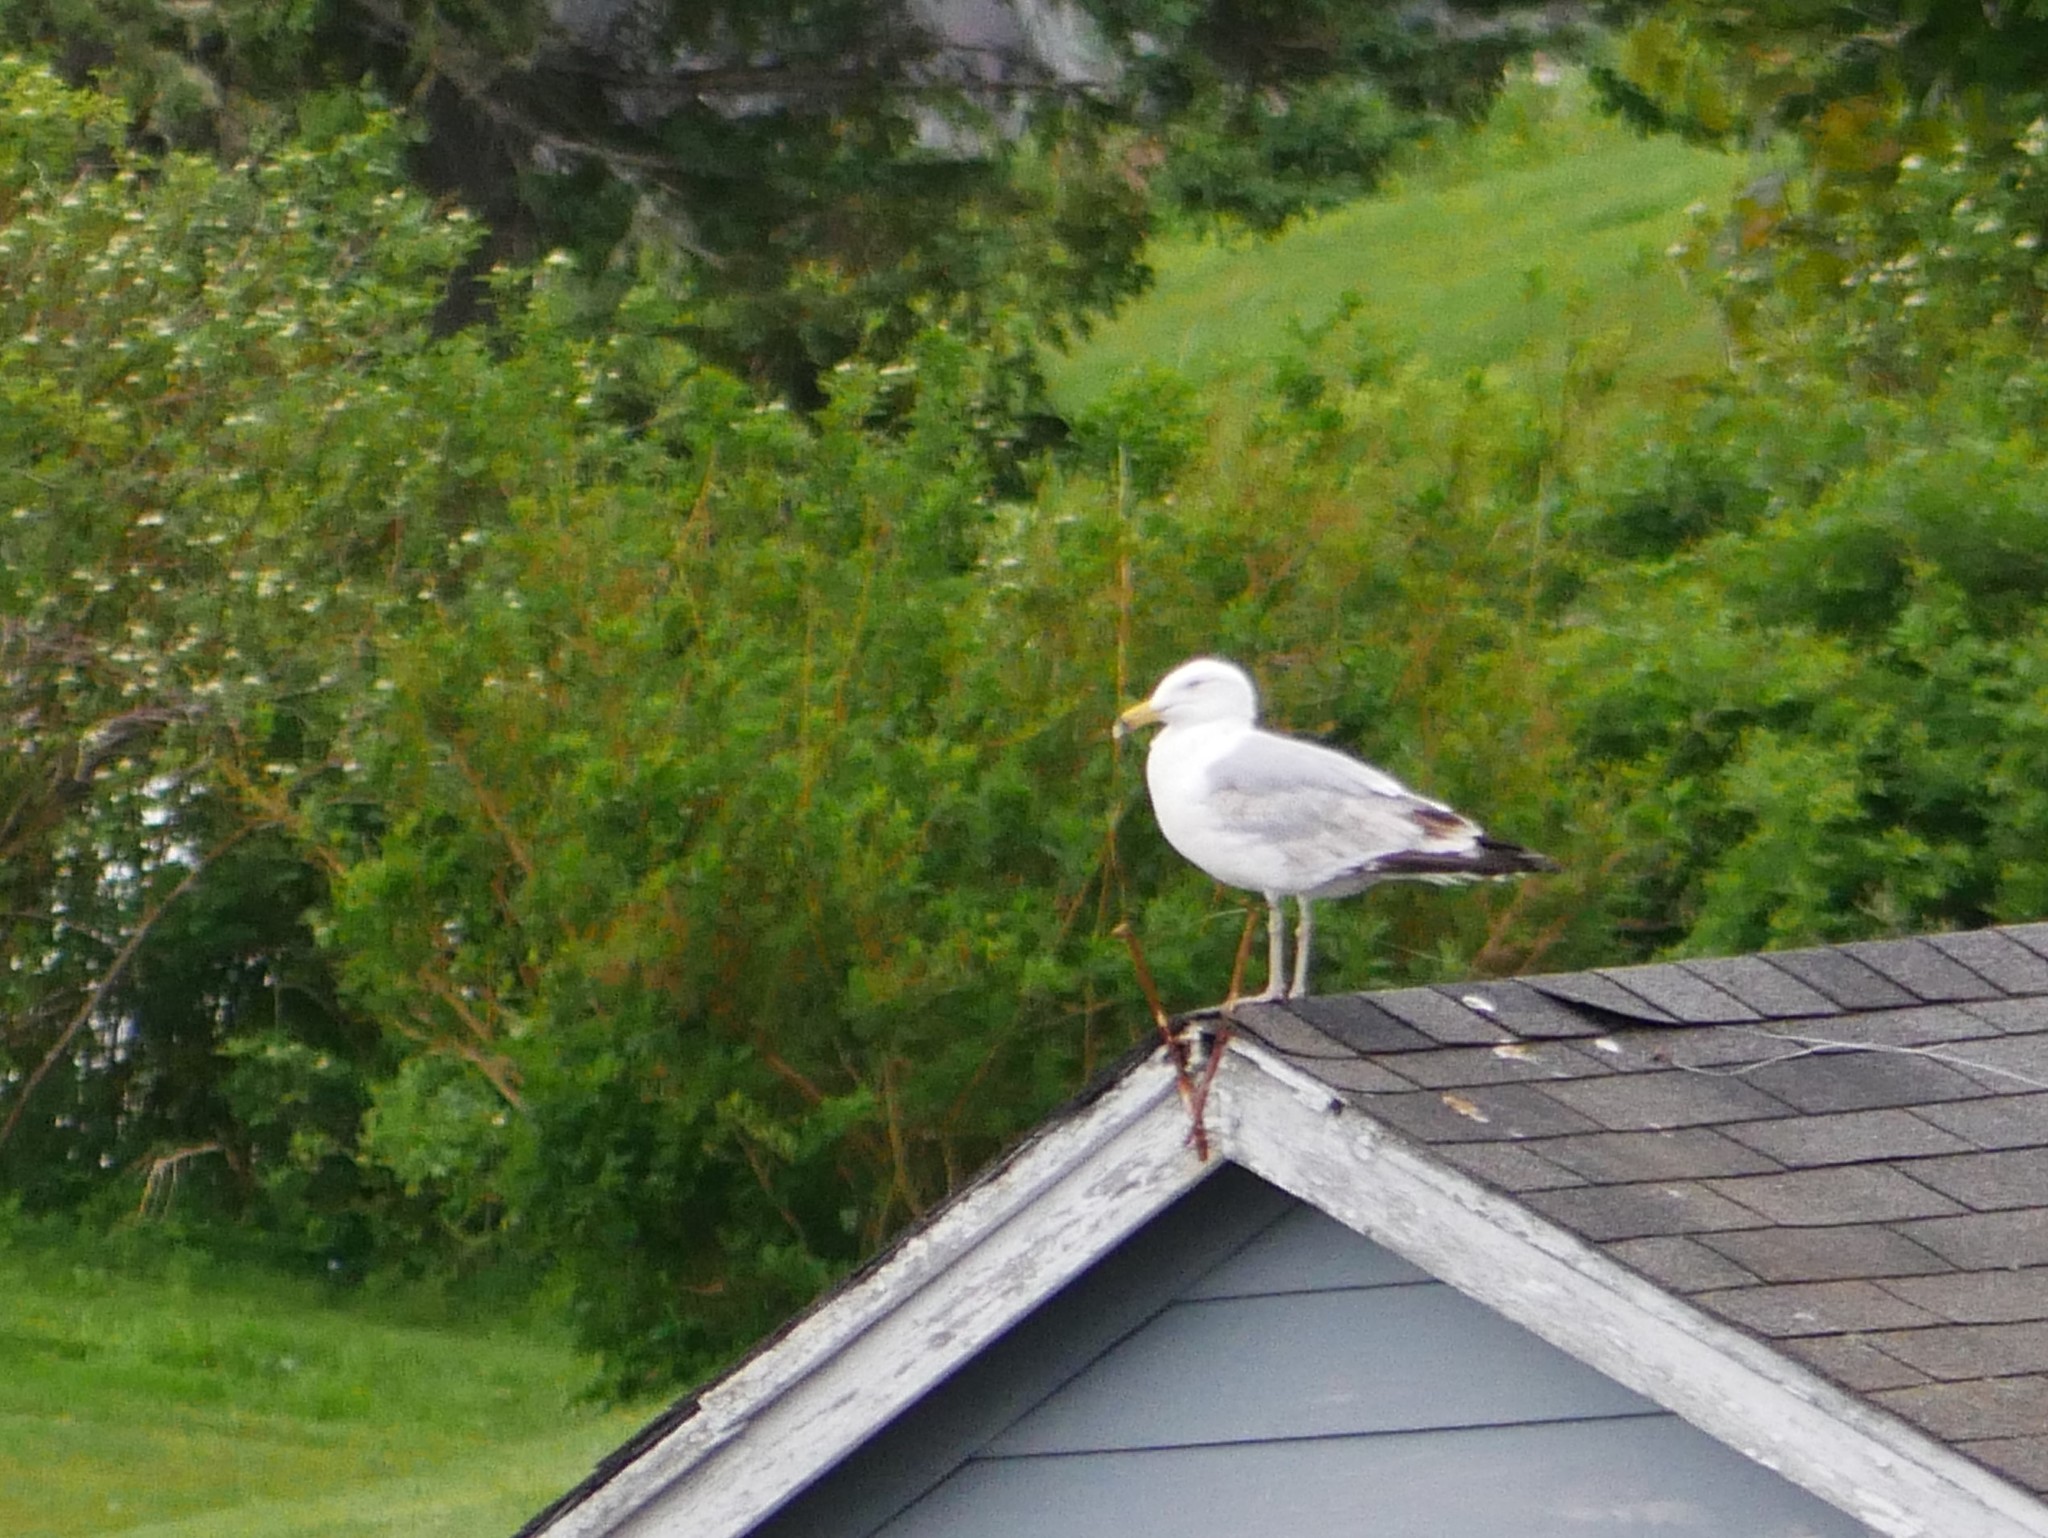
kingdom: Animalia
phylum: Chordata
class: Aves
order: Charadriiformes
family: Laridae
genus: Larus
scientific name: Larus argentatus
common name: Herring gull
